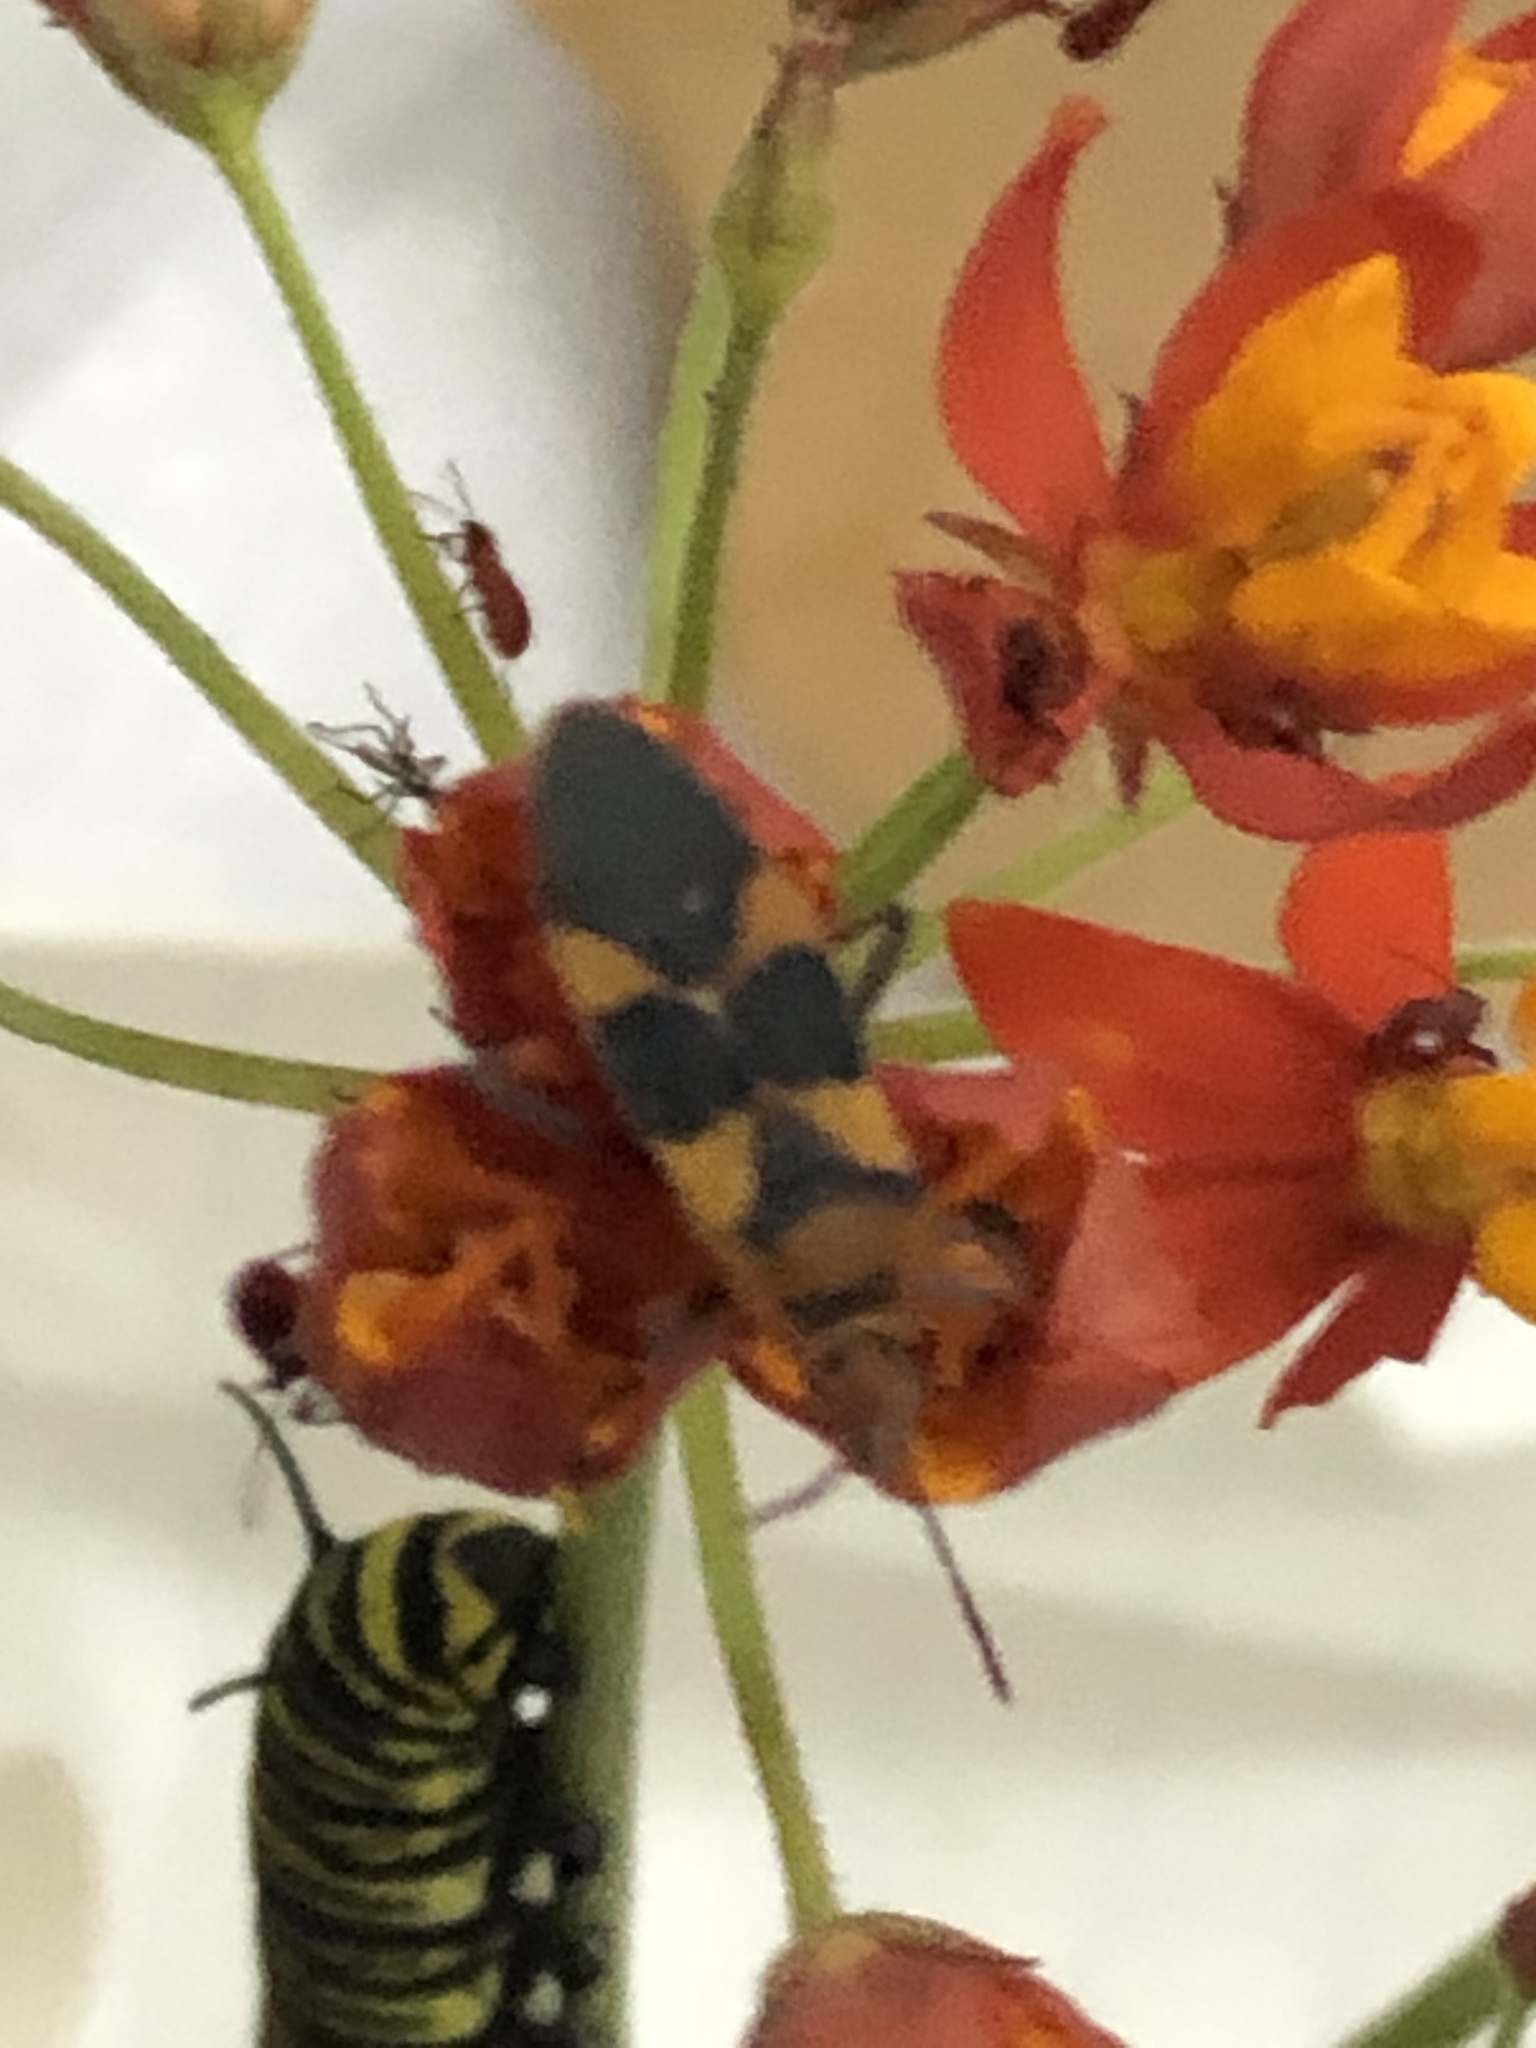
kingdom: Animalia
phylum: Arthropoda
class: Insecta
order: Hemiptera
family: Lygaeidae
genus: Oncopeltus
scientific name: Oncopeltus zonatus
